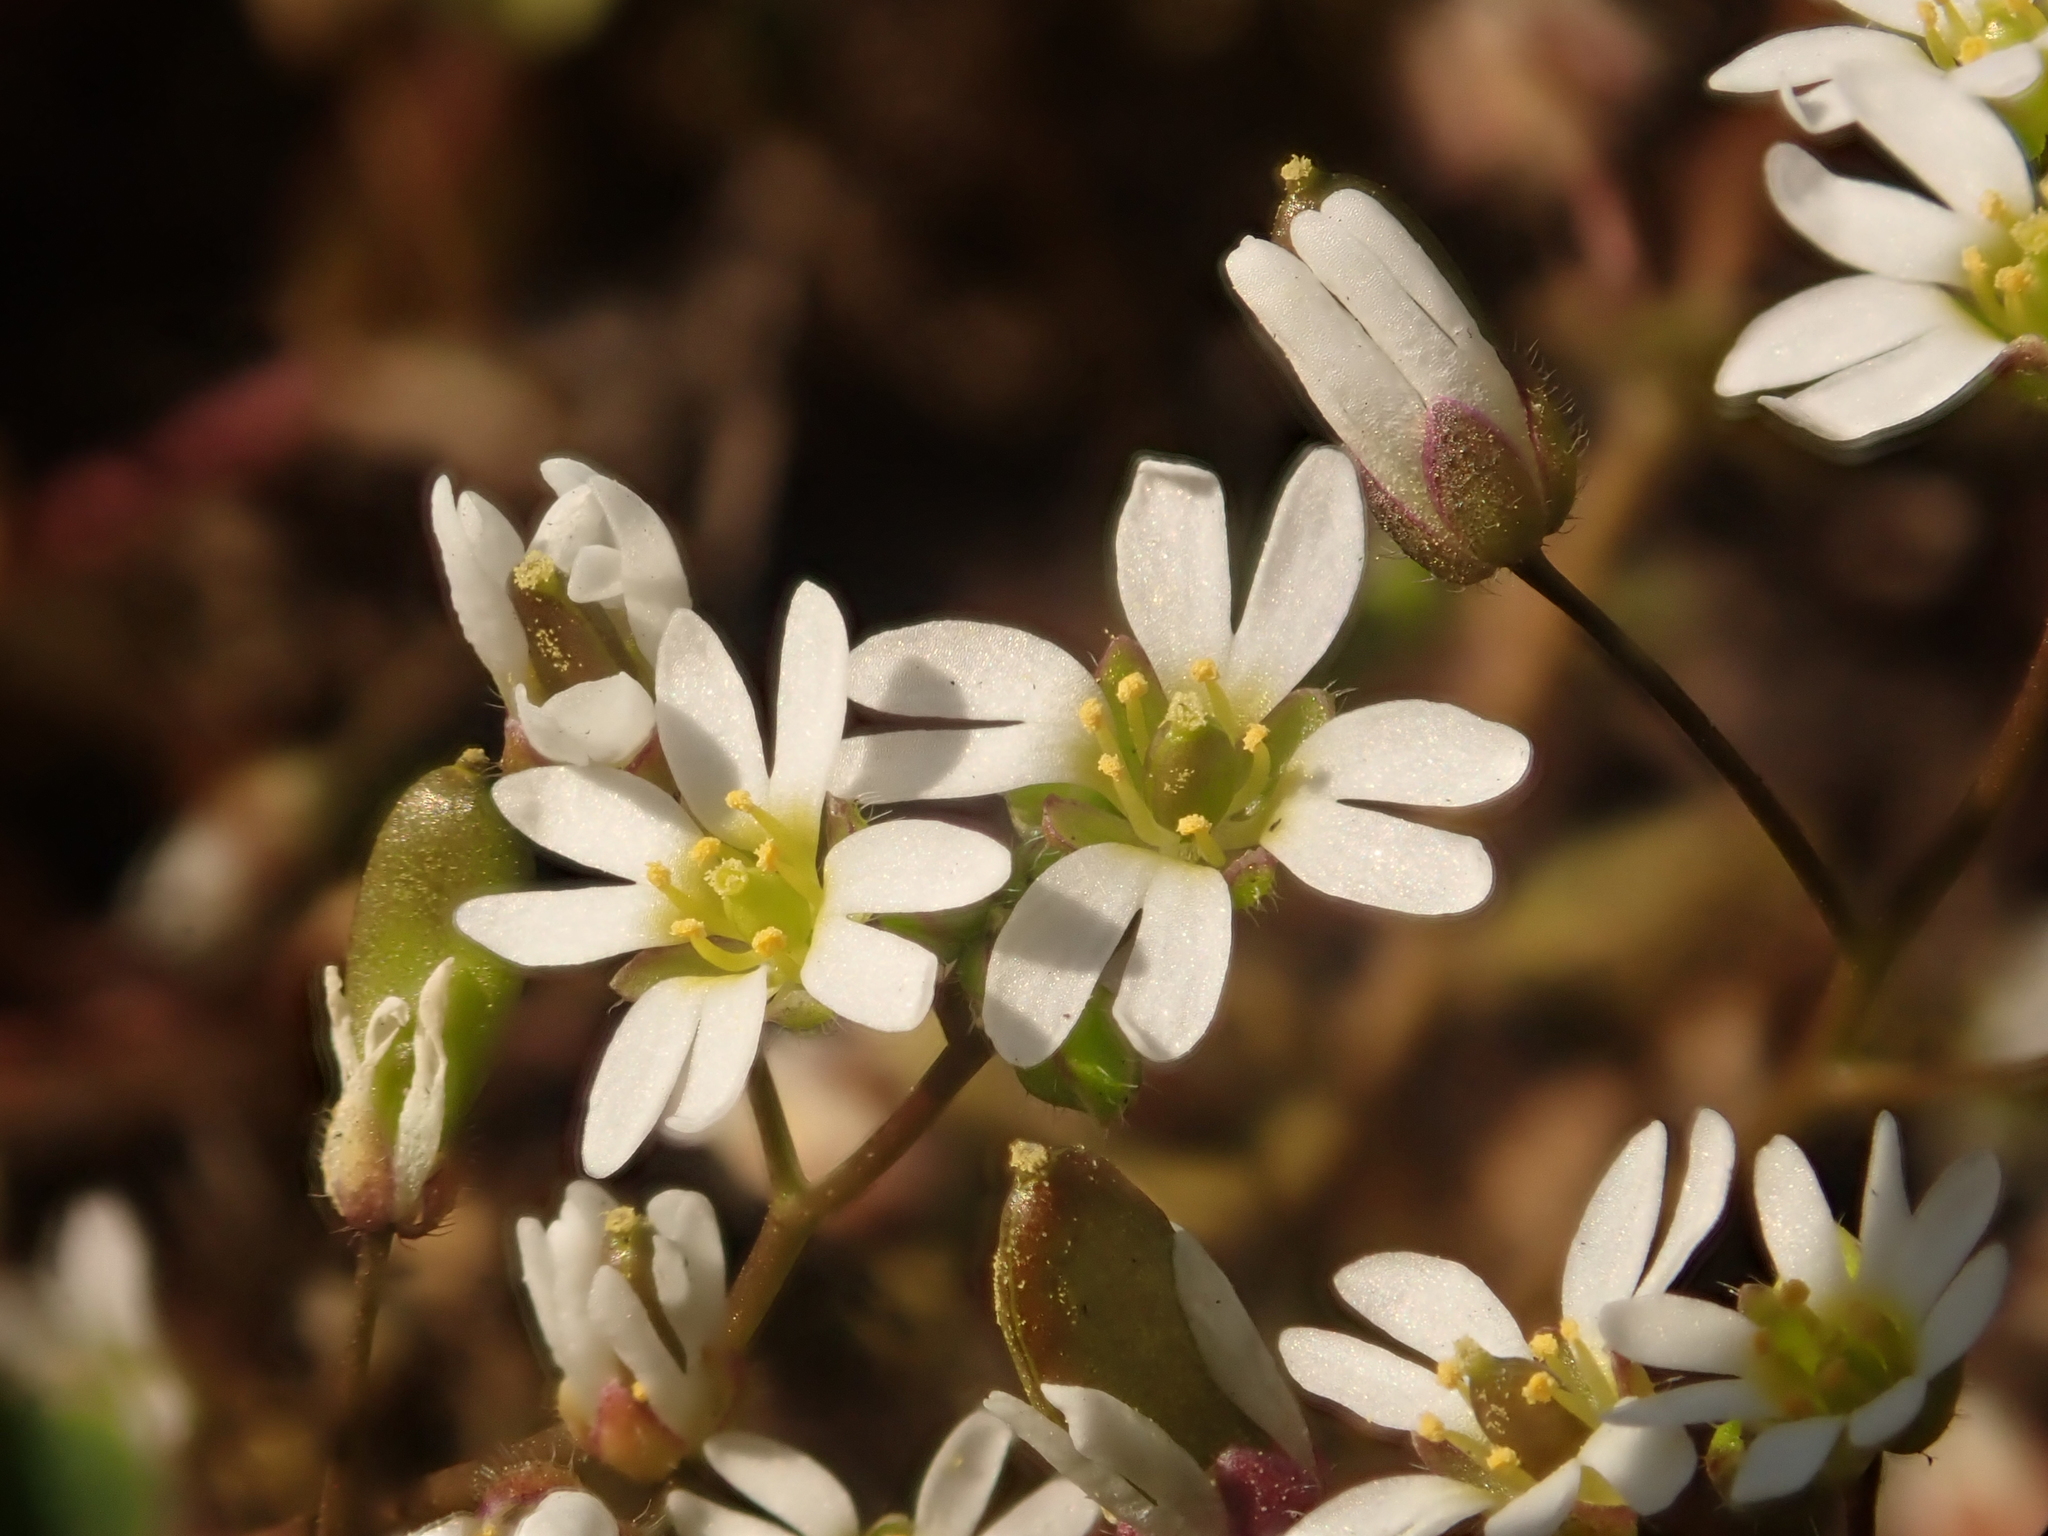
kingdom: Plantae
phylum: Tracheophyta
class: Magnoliopsida
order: Brassicales
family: Brassicaceae
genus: Draba
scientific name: Draba verna
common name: Spring draba
